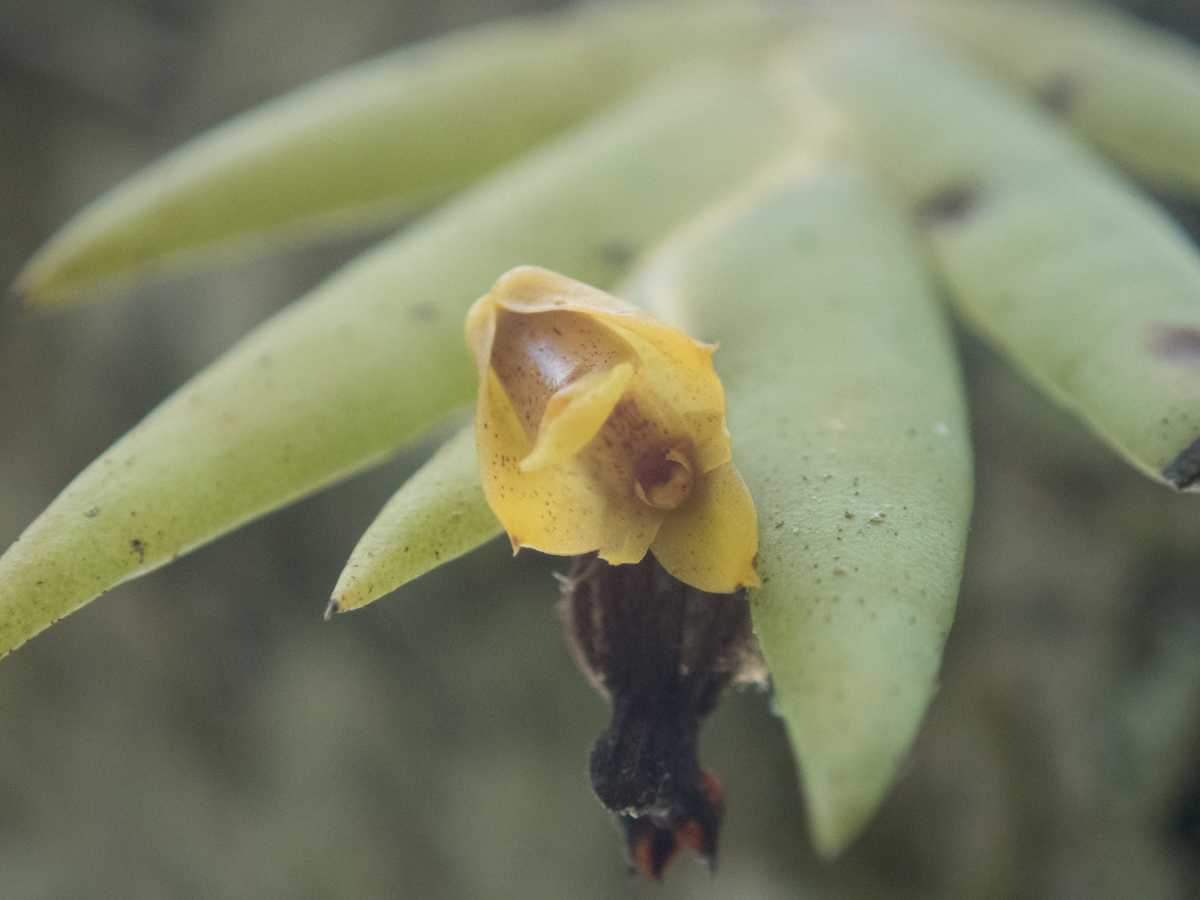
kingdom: Plantae
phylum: Tracheophyta
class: Liliopsida
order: Asparagales
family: Orchidaceae
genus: Oxystophyllum
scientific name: Oxystophyllum carnosum
